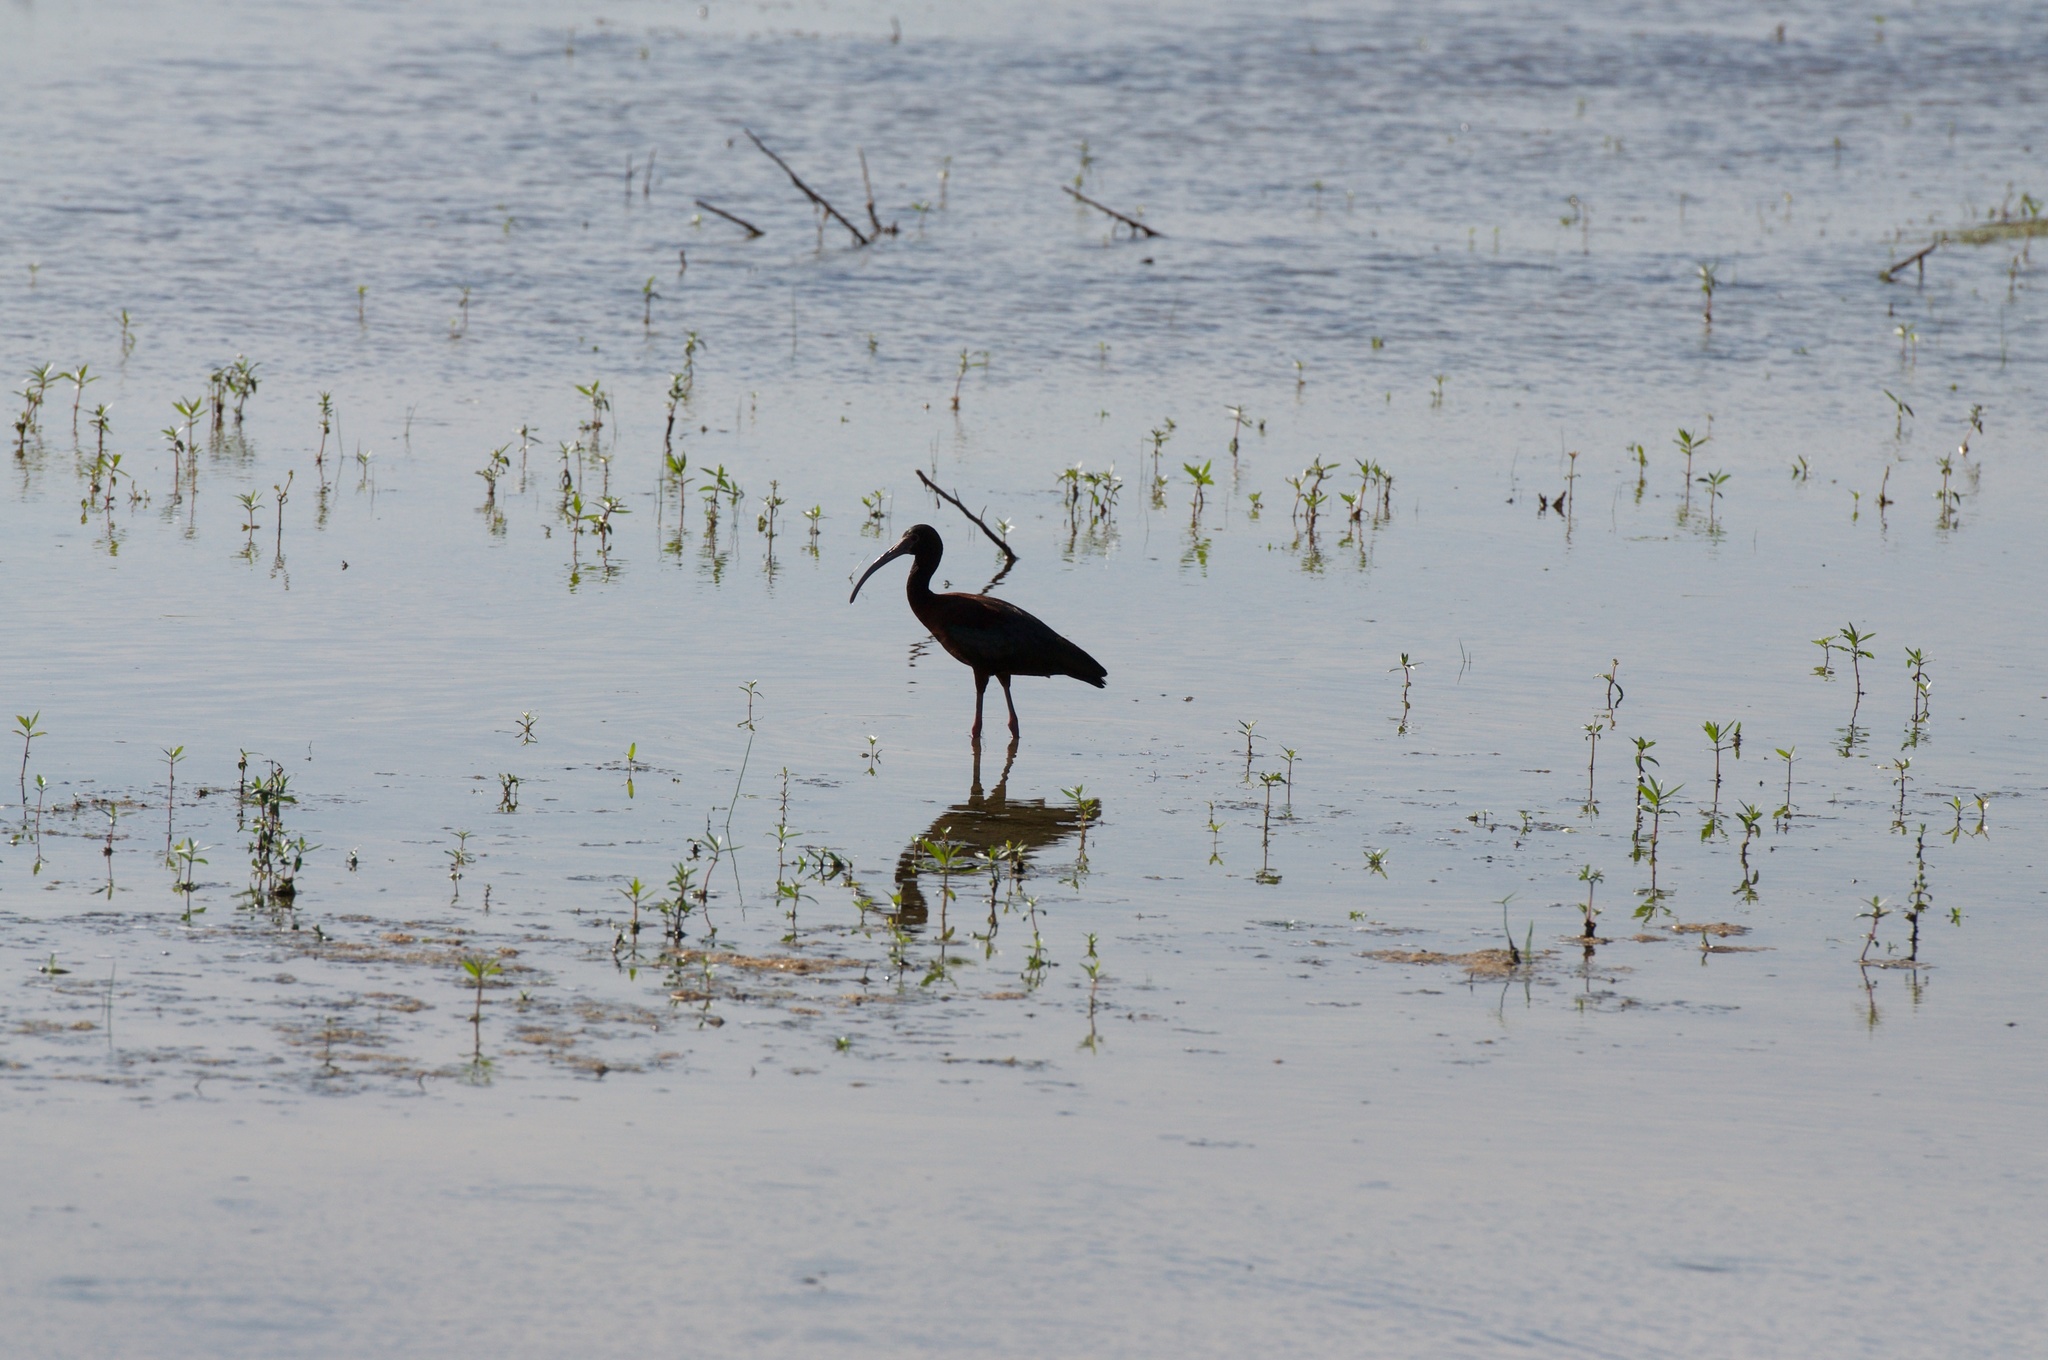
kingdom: Animalia
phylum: Chordata
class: Aves
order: Pelecaniformes
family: Threskiornithidae
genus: Plegadis
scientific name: Plegadis chihi
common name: White-faced ibis
